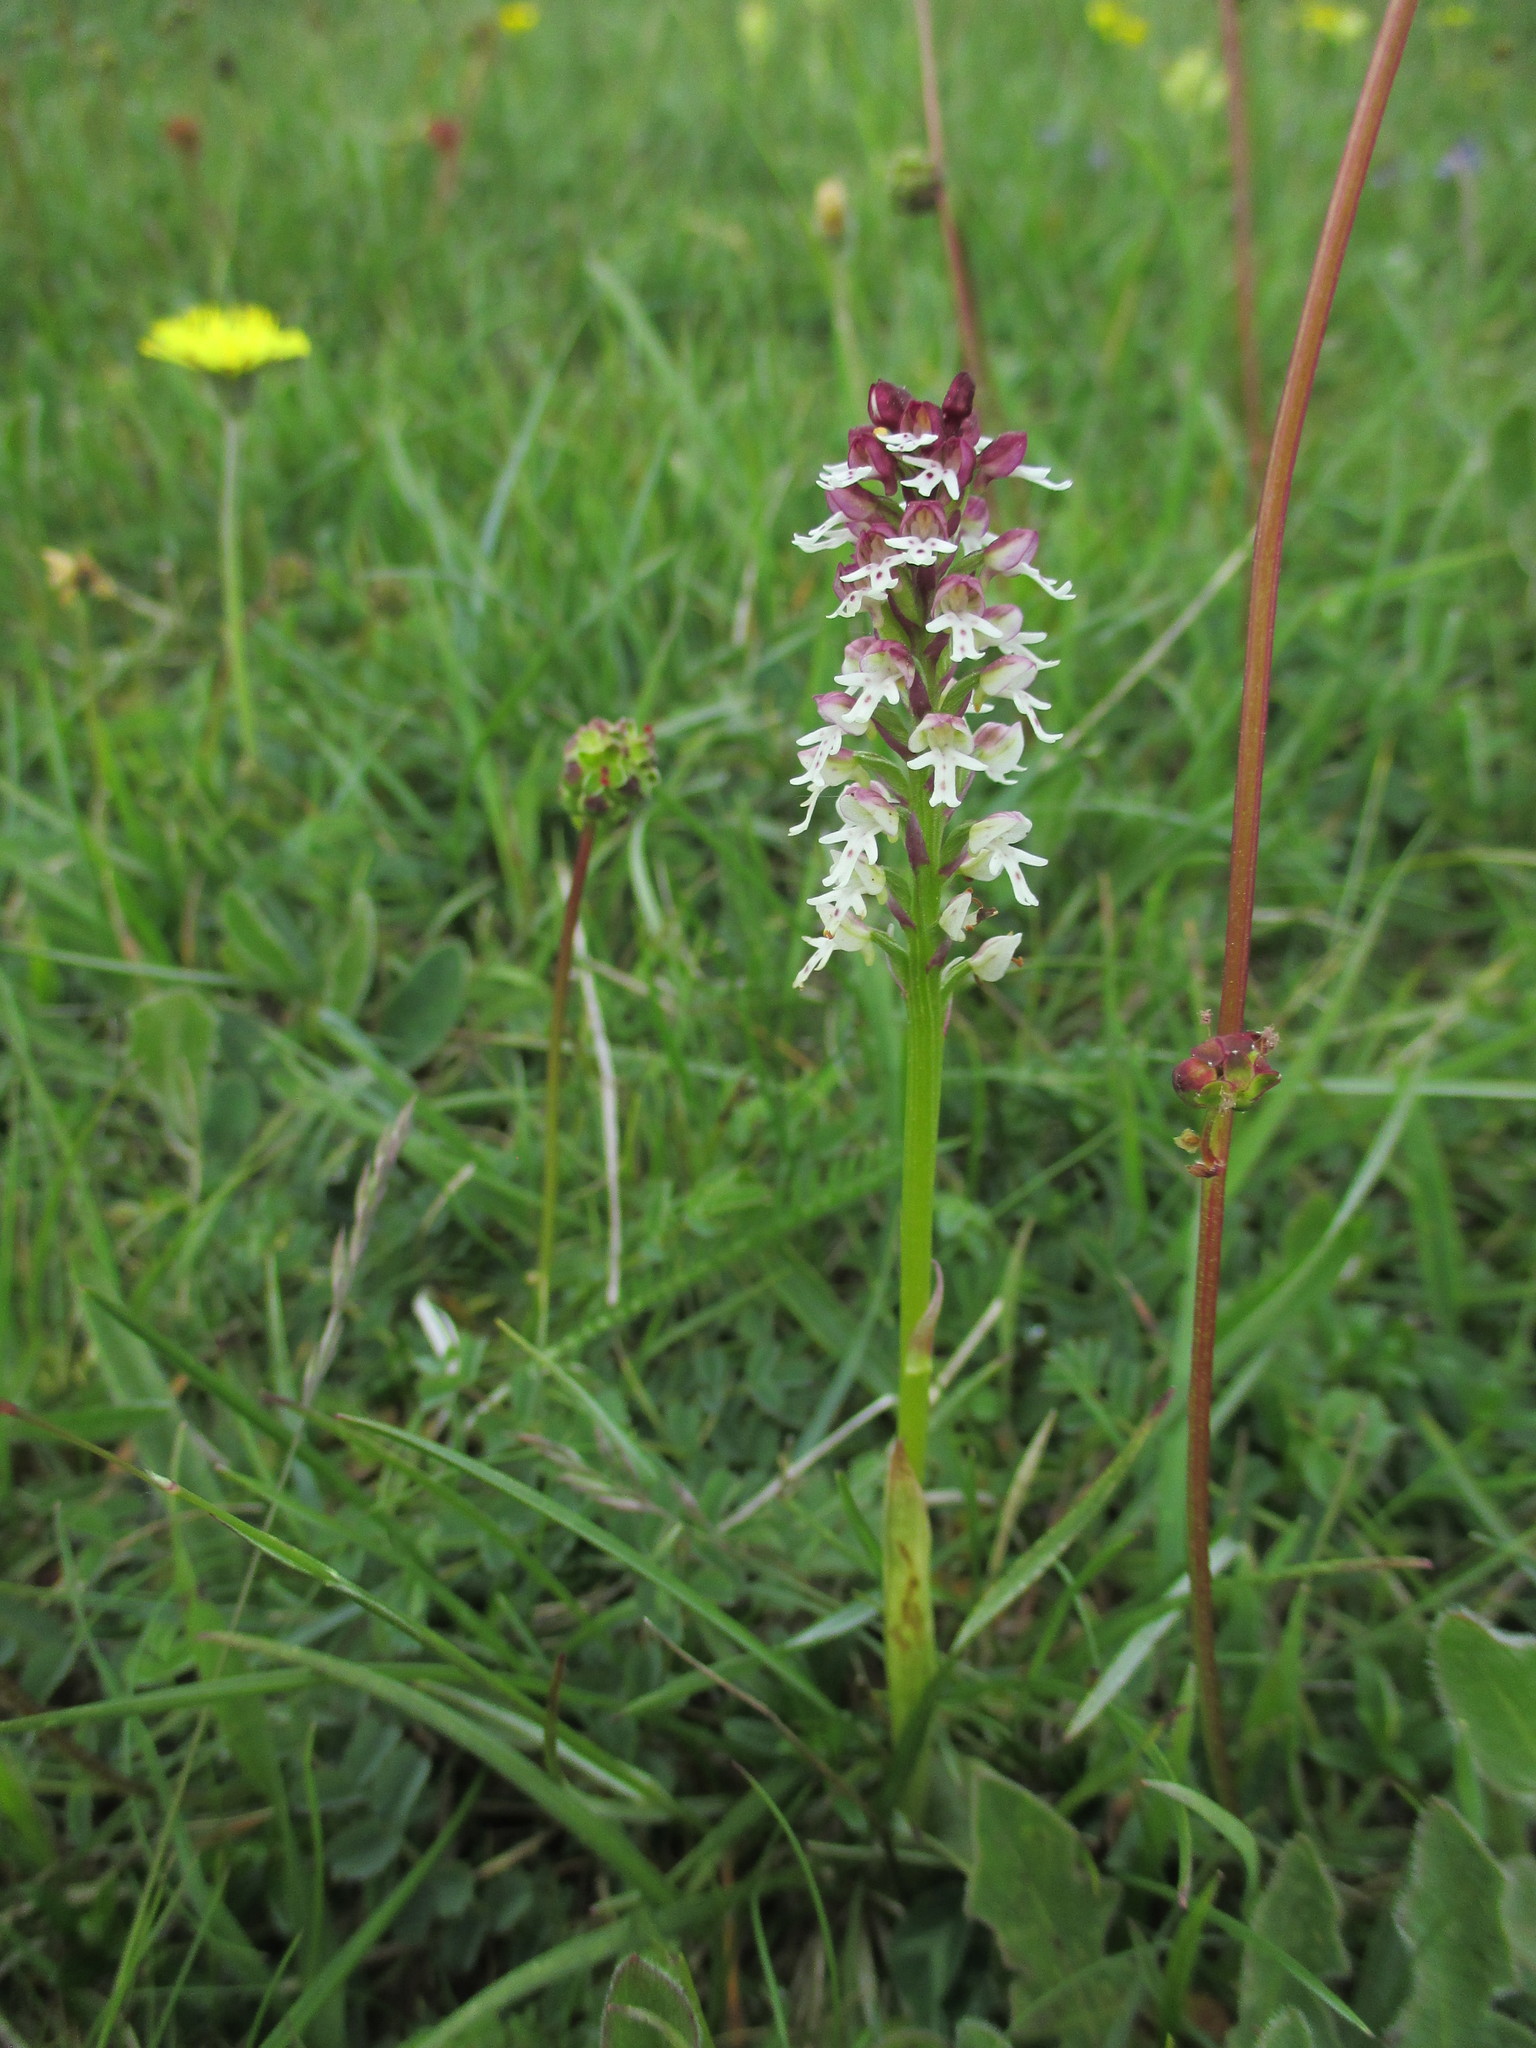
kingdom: Plantae
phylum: Tracheophyta
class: Liliopsida
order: Asparagales
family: Orchidaceae
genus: Neotinea
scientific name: Neotinea ustulata
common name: Burnt orchid
